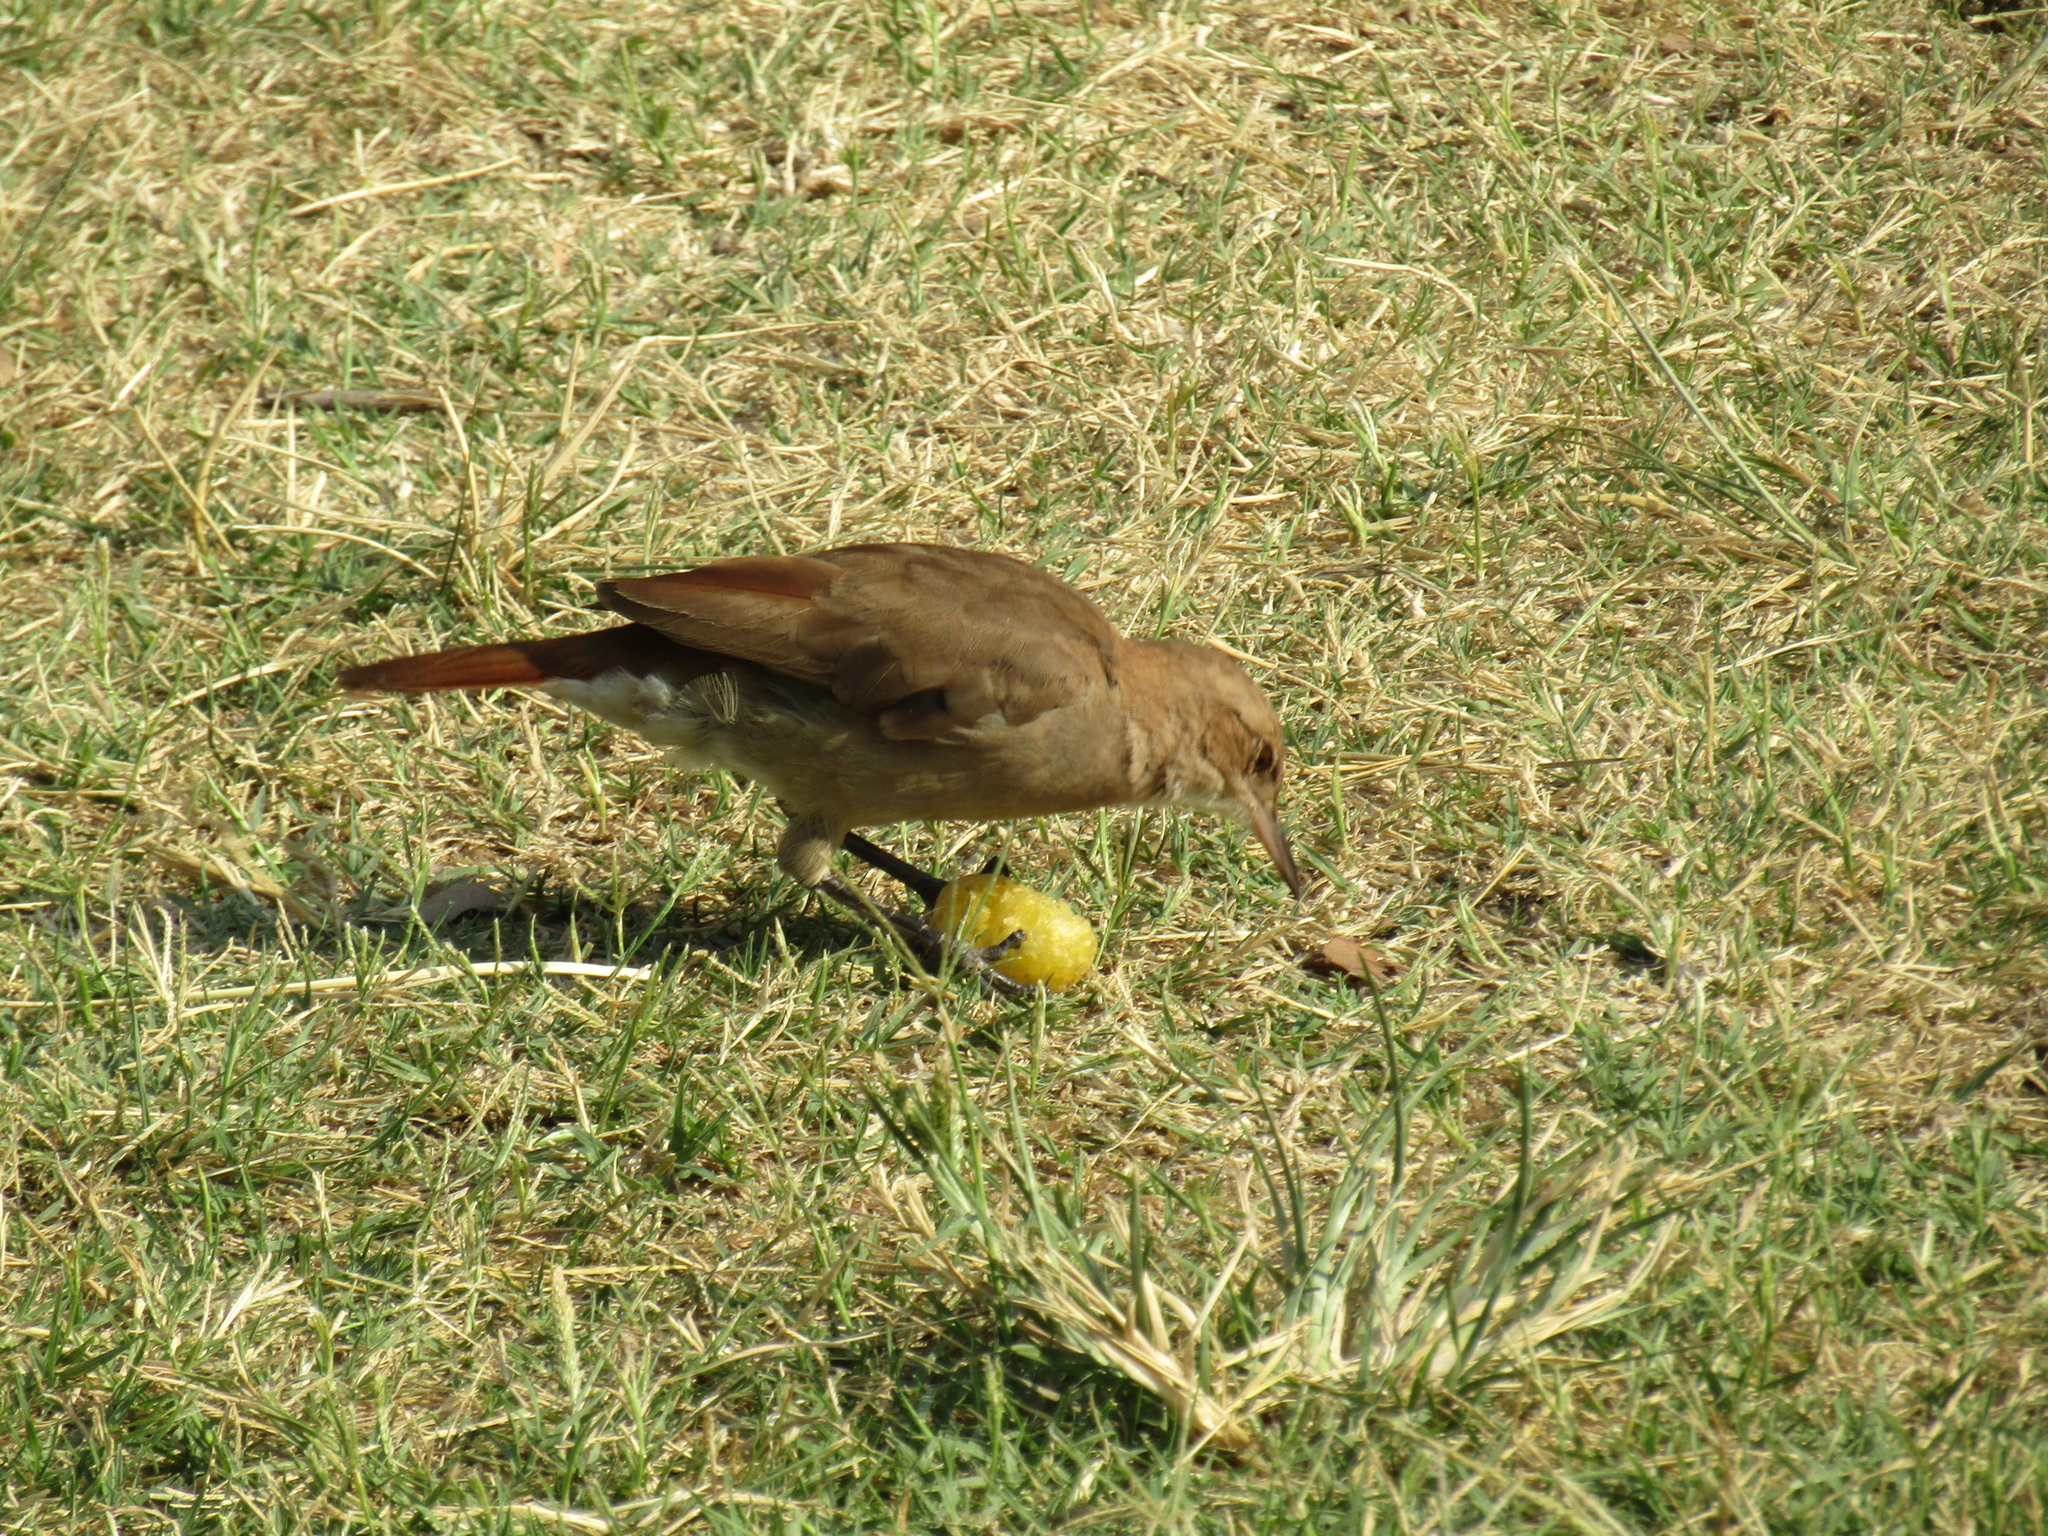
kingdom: Animalia
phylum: Chordata
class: Aves
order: Passeriformes
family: Furnariidae
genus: Furnarius
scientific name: Furnarius rufus
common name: Rufous hornero
